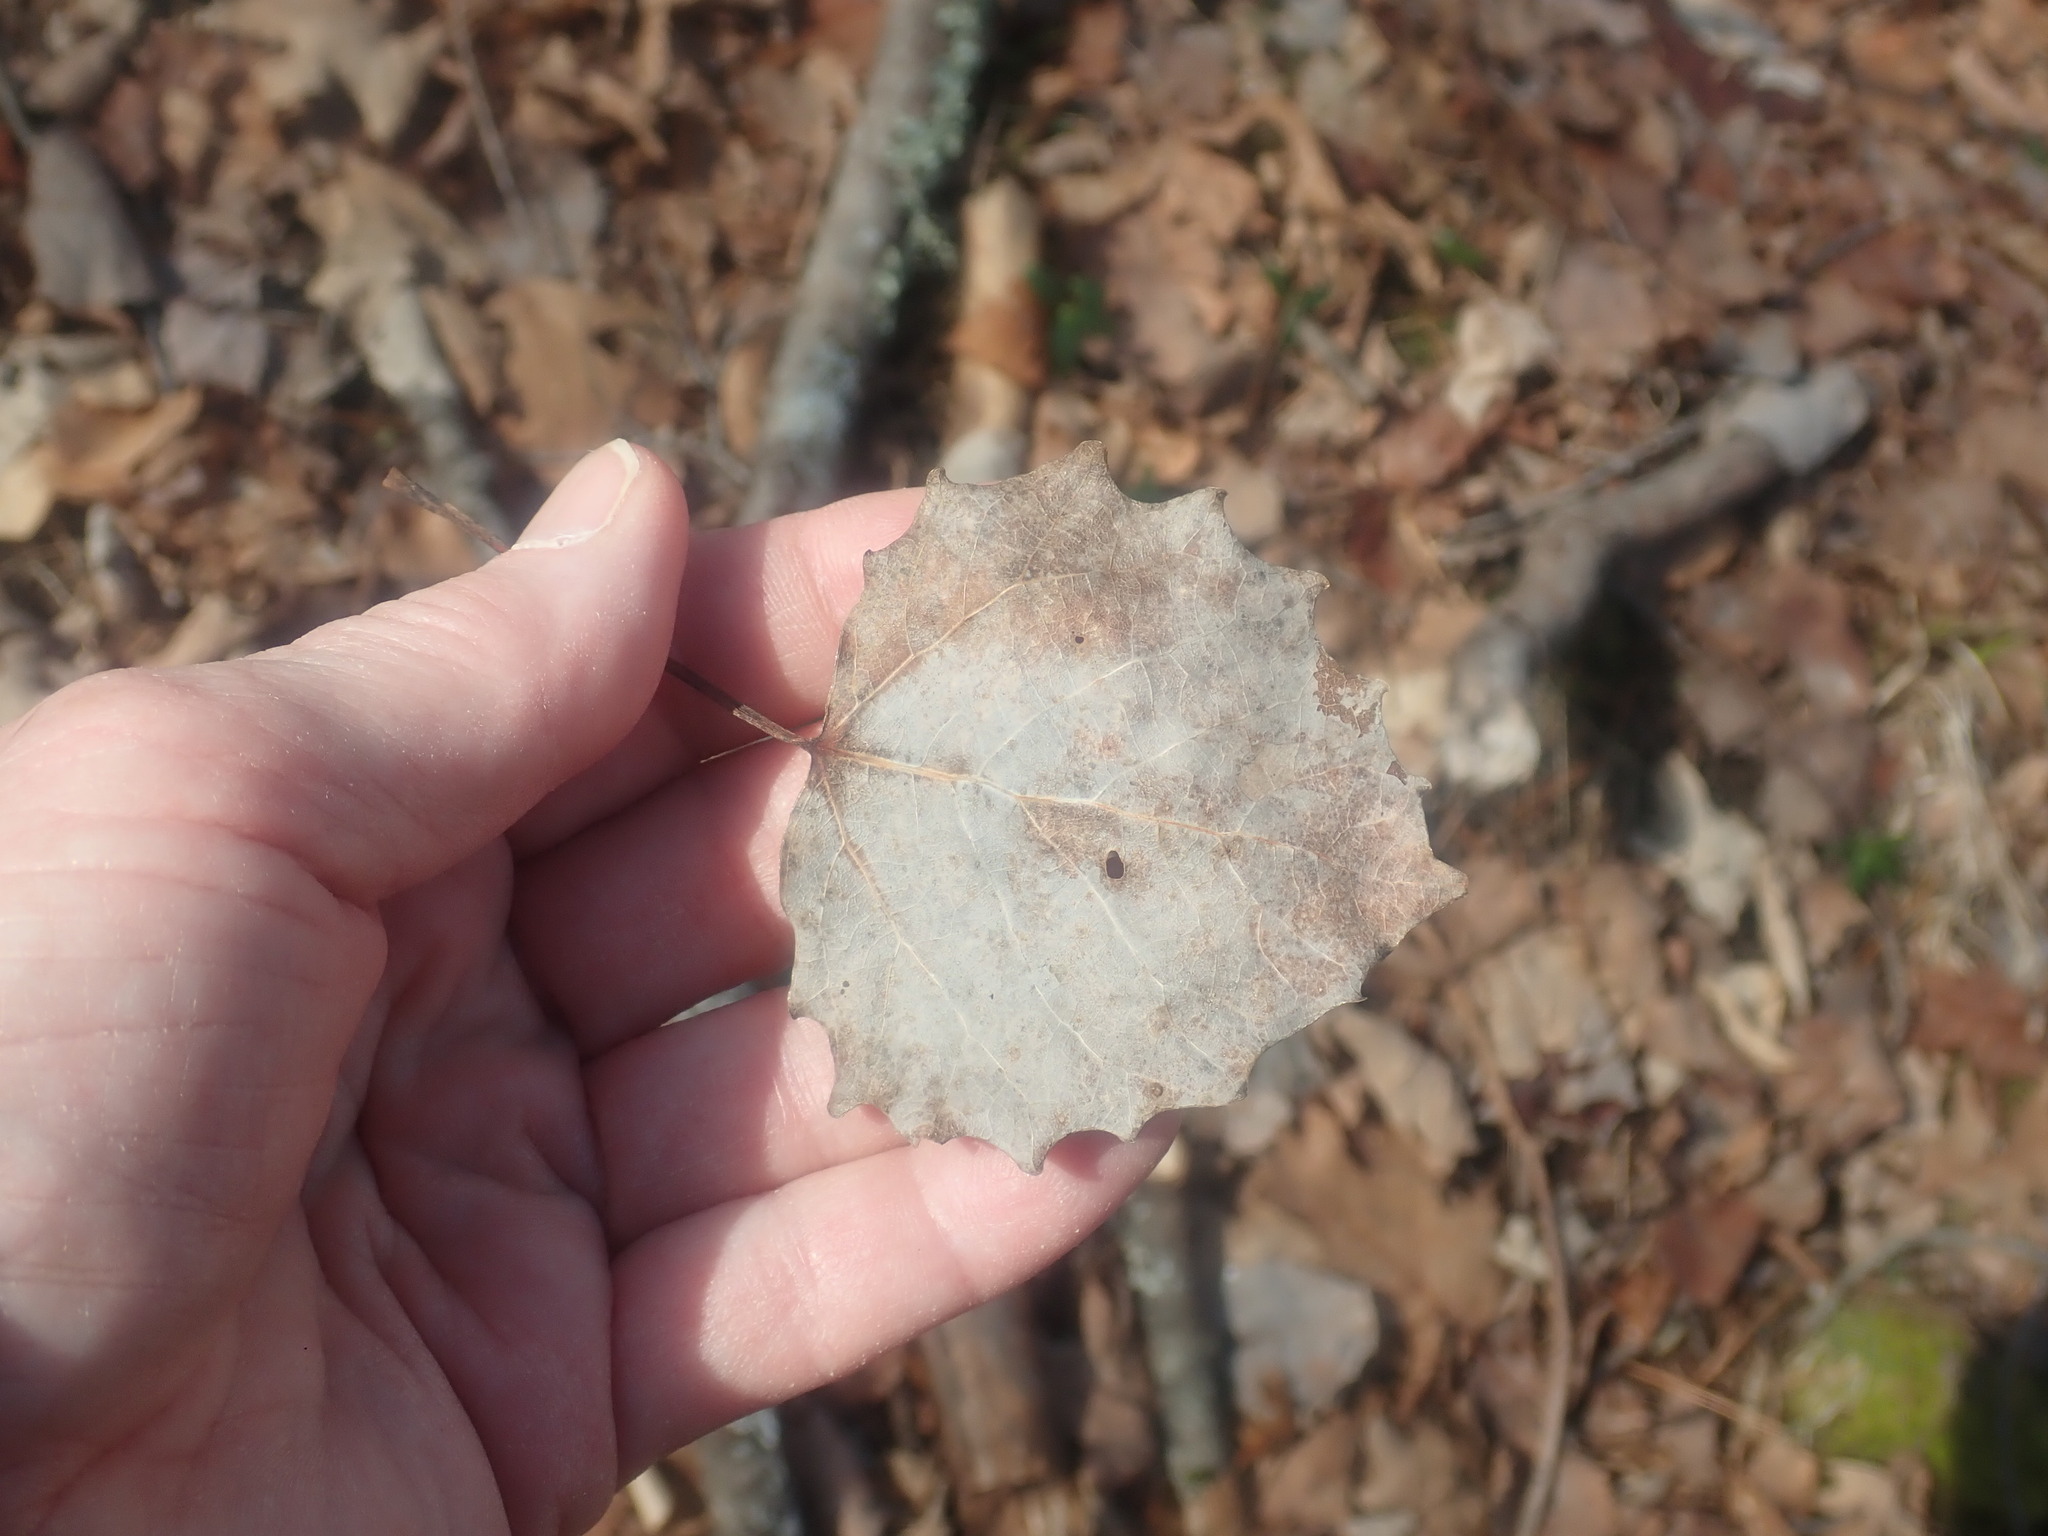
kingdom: Plantae
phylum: Tracheophyta
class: Magnoliopsida
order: Malpighiales
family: Salicaceae
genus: Populus
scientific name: Populus grandidentata
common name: Bigtooth aspen
